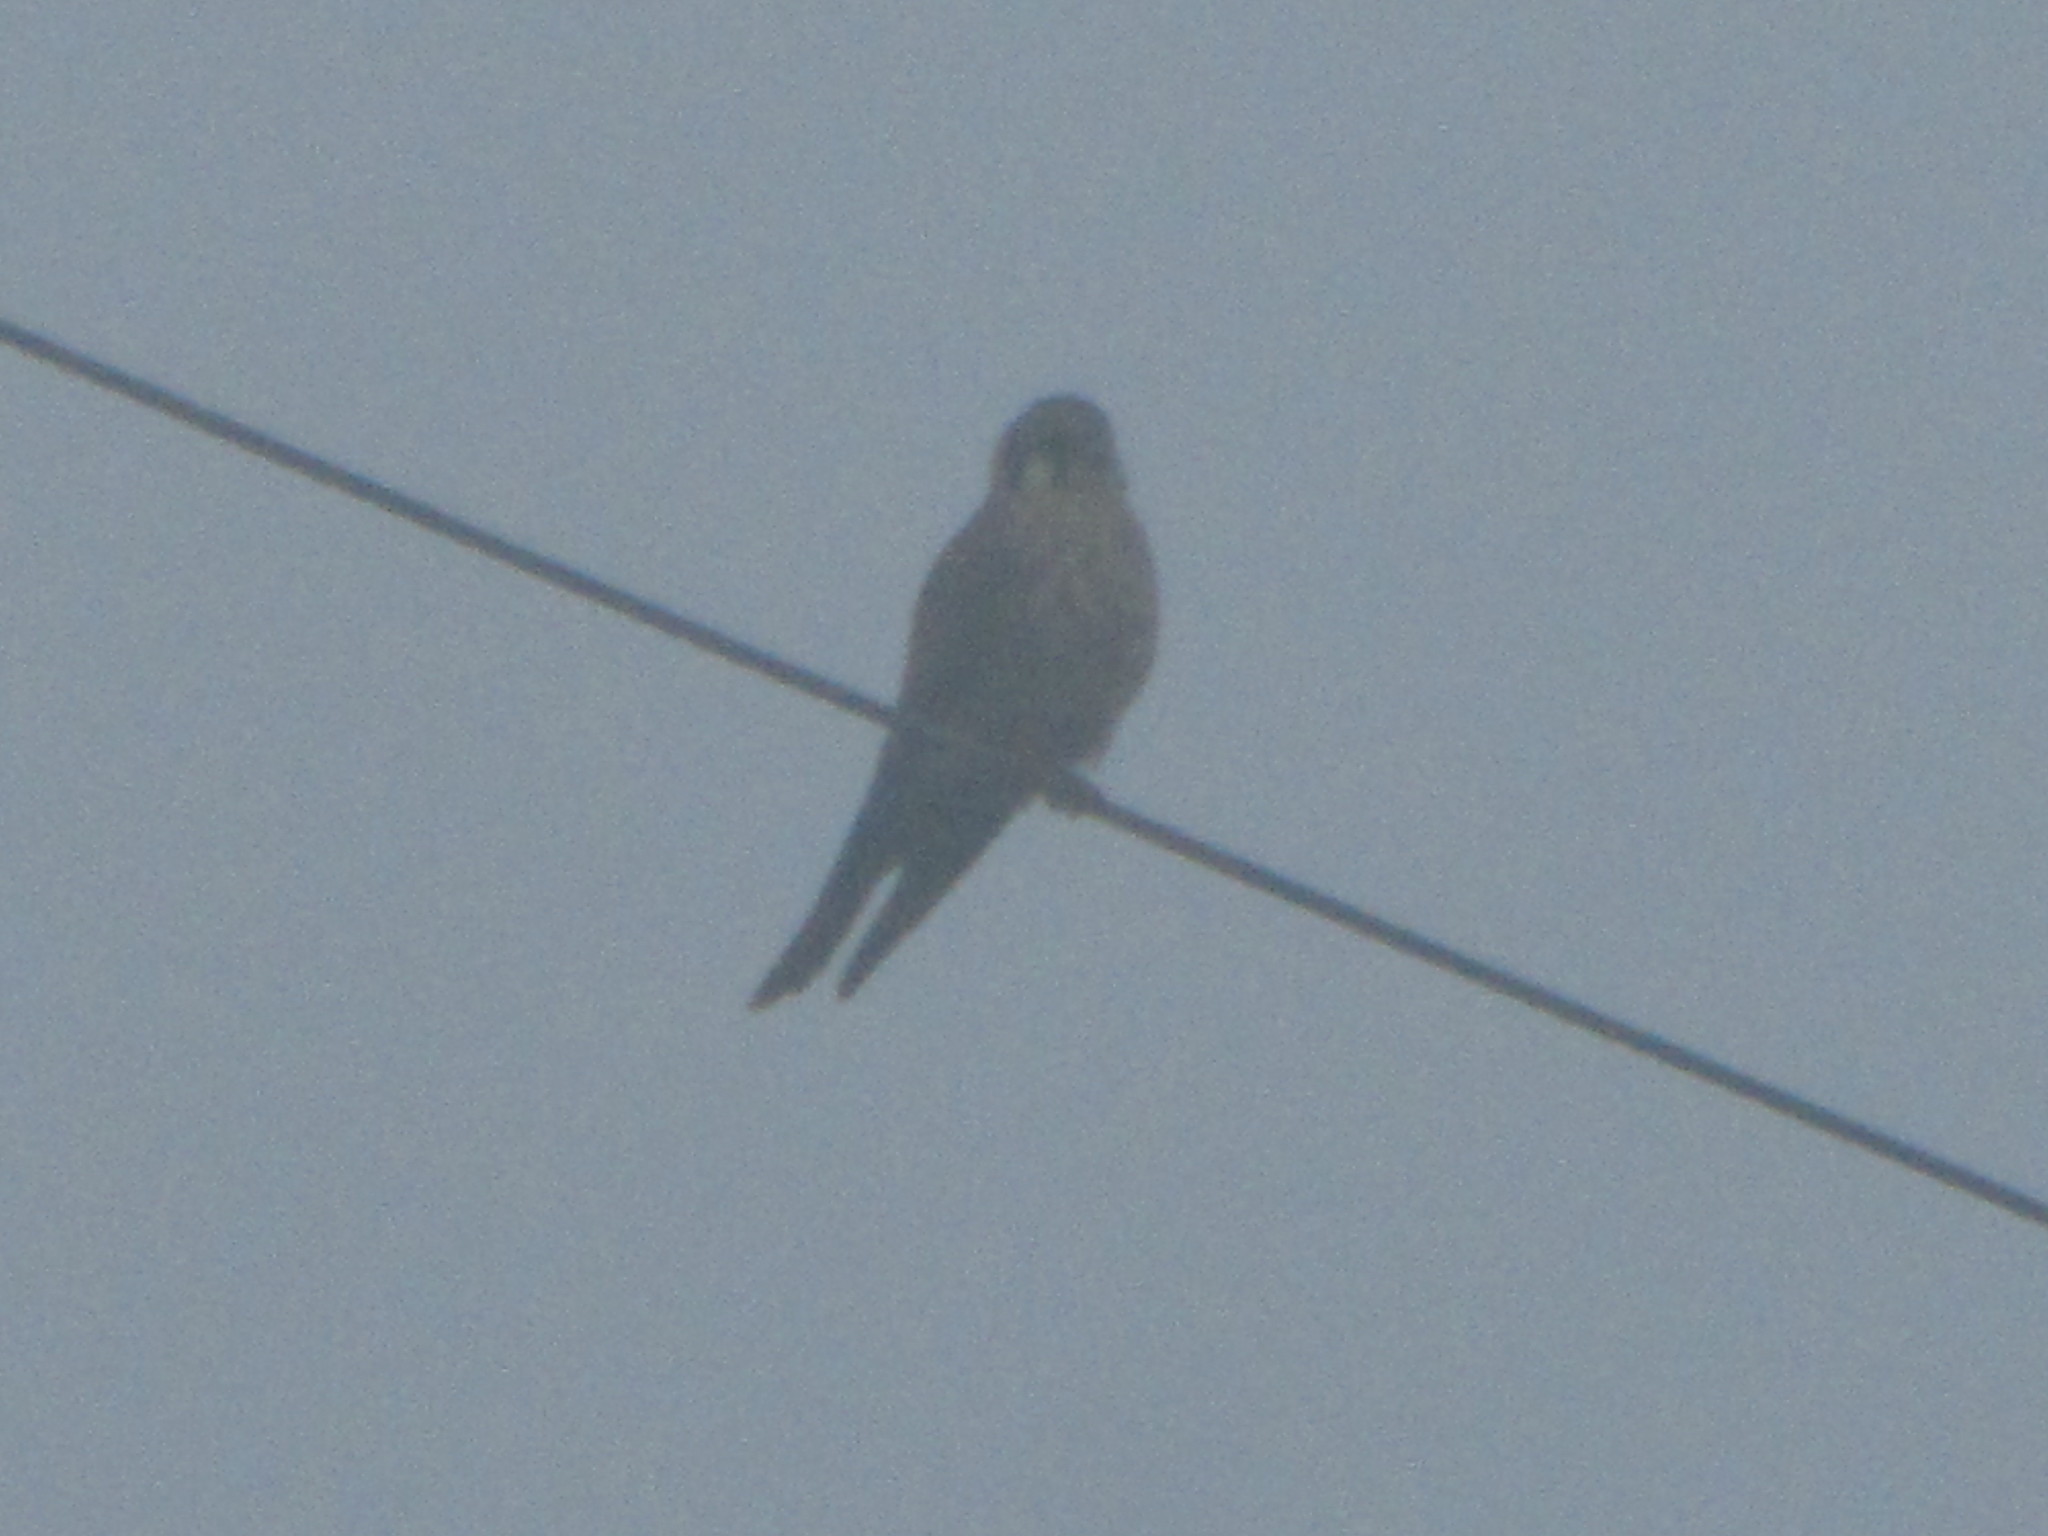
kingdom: Animalia
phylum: Chordata
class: Aves
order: Falconiformes
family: Falconidae
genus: Falco
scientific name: Falco sparverius
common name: American kestrel
